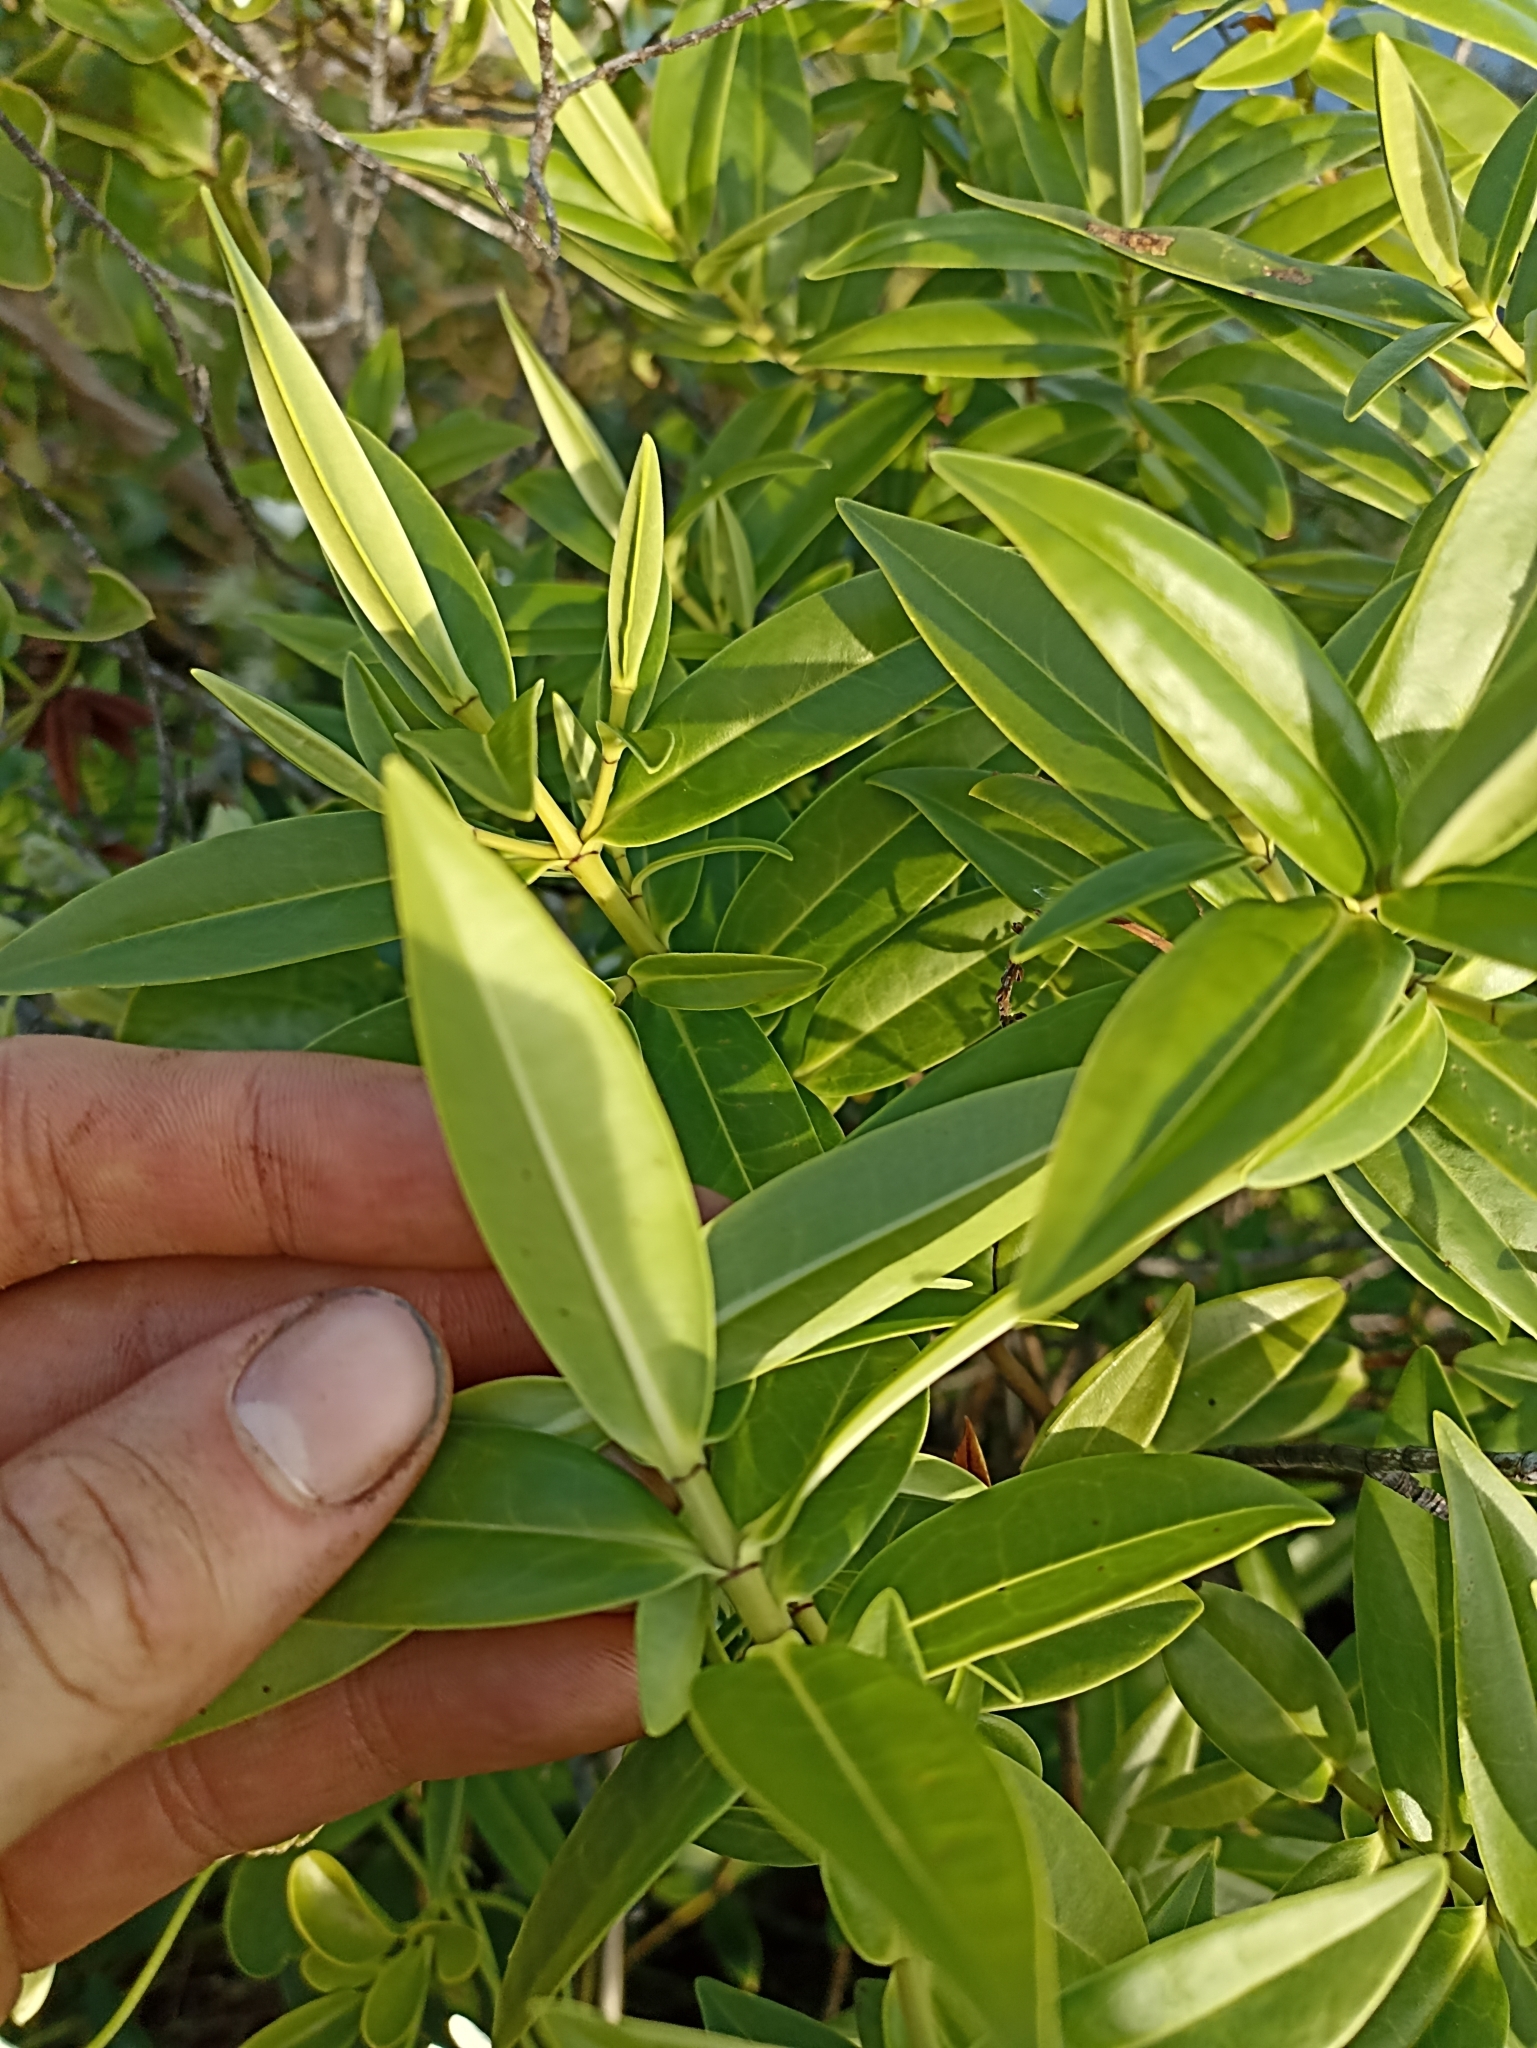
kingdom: Plantae
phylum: Tracheophyta
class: Magnoliopsida
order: Lamiales
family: Plantaginaceae
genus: Veronica
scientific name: Veronica ligustrifolia
